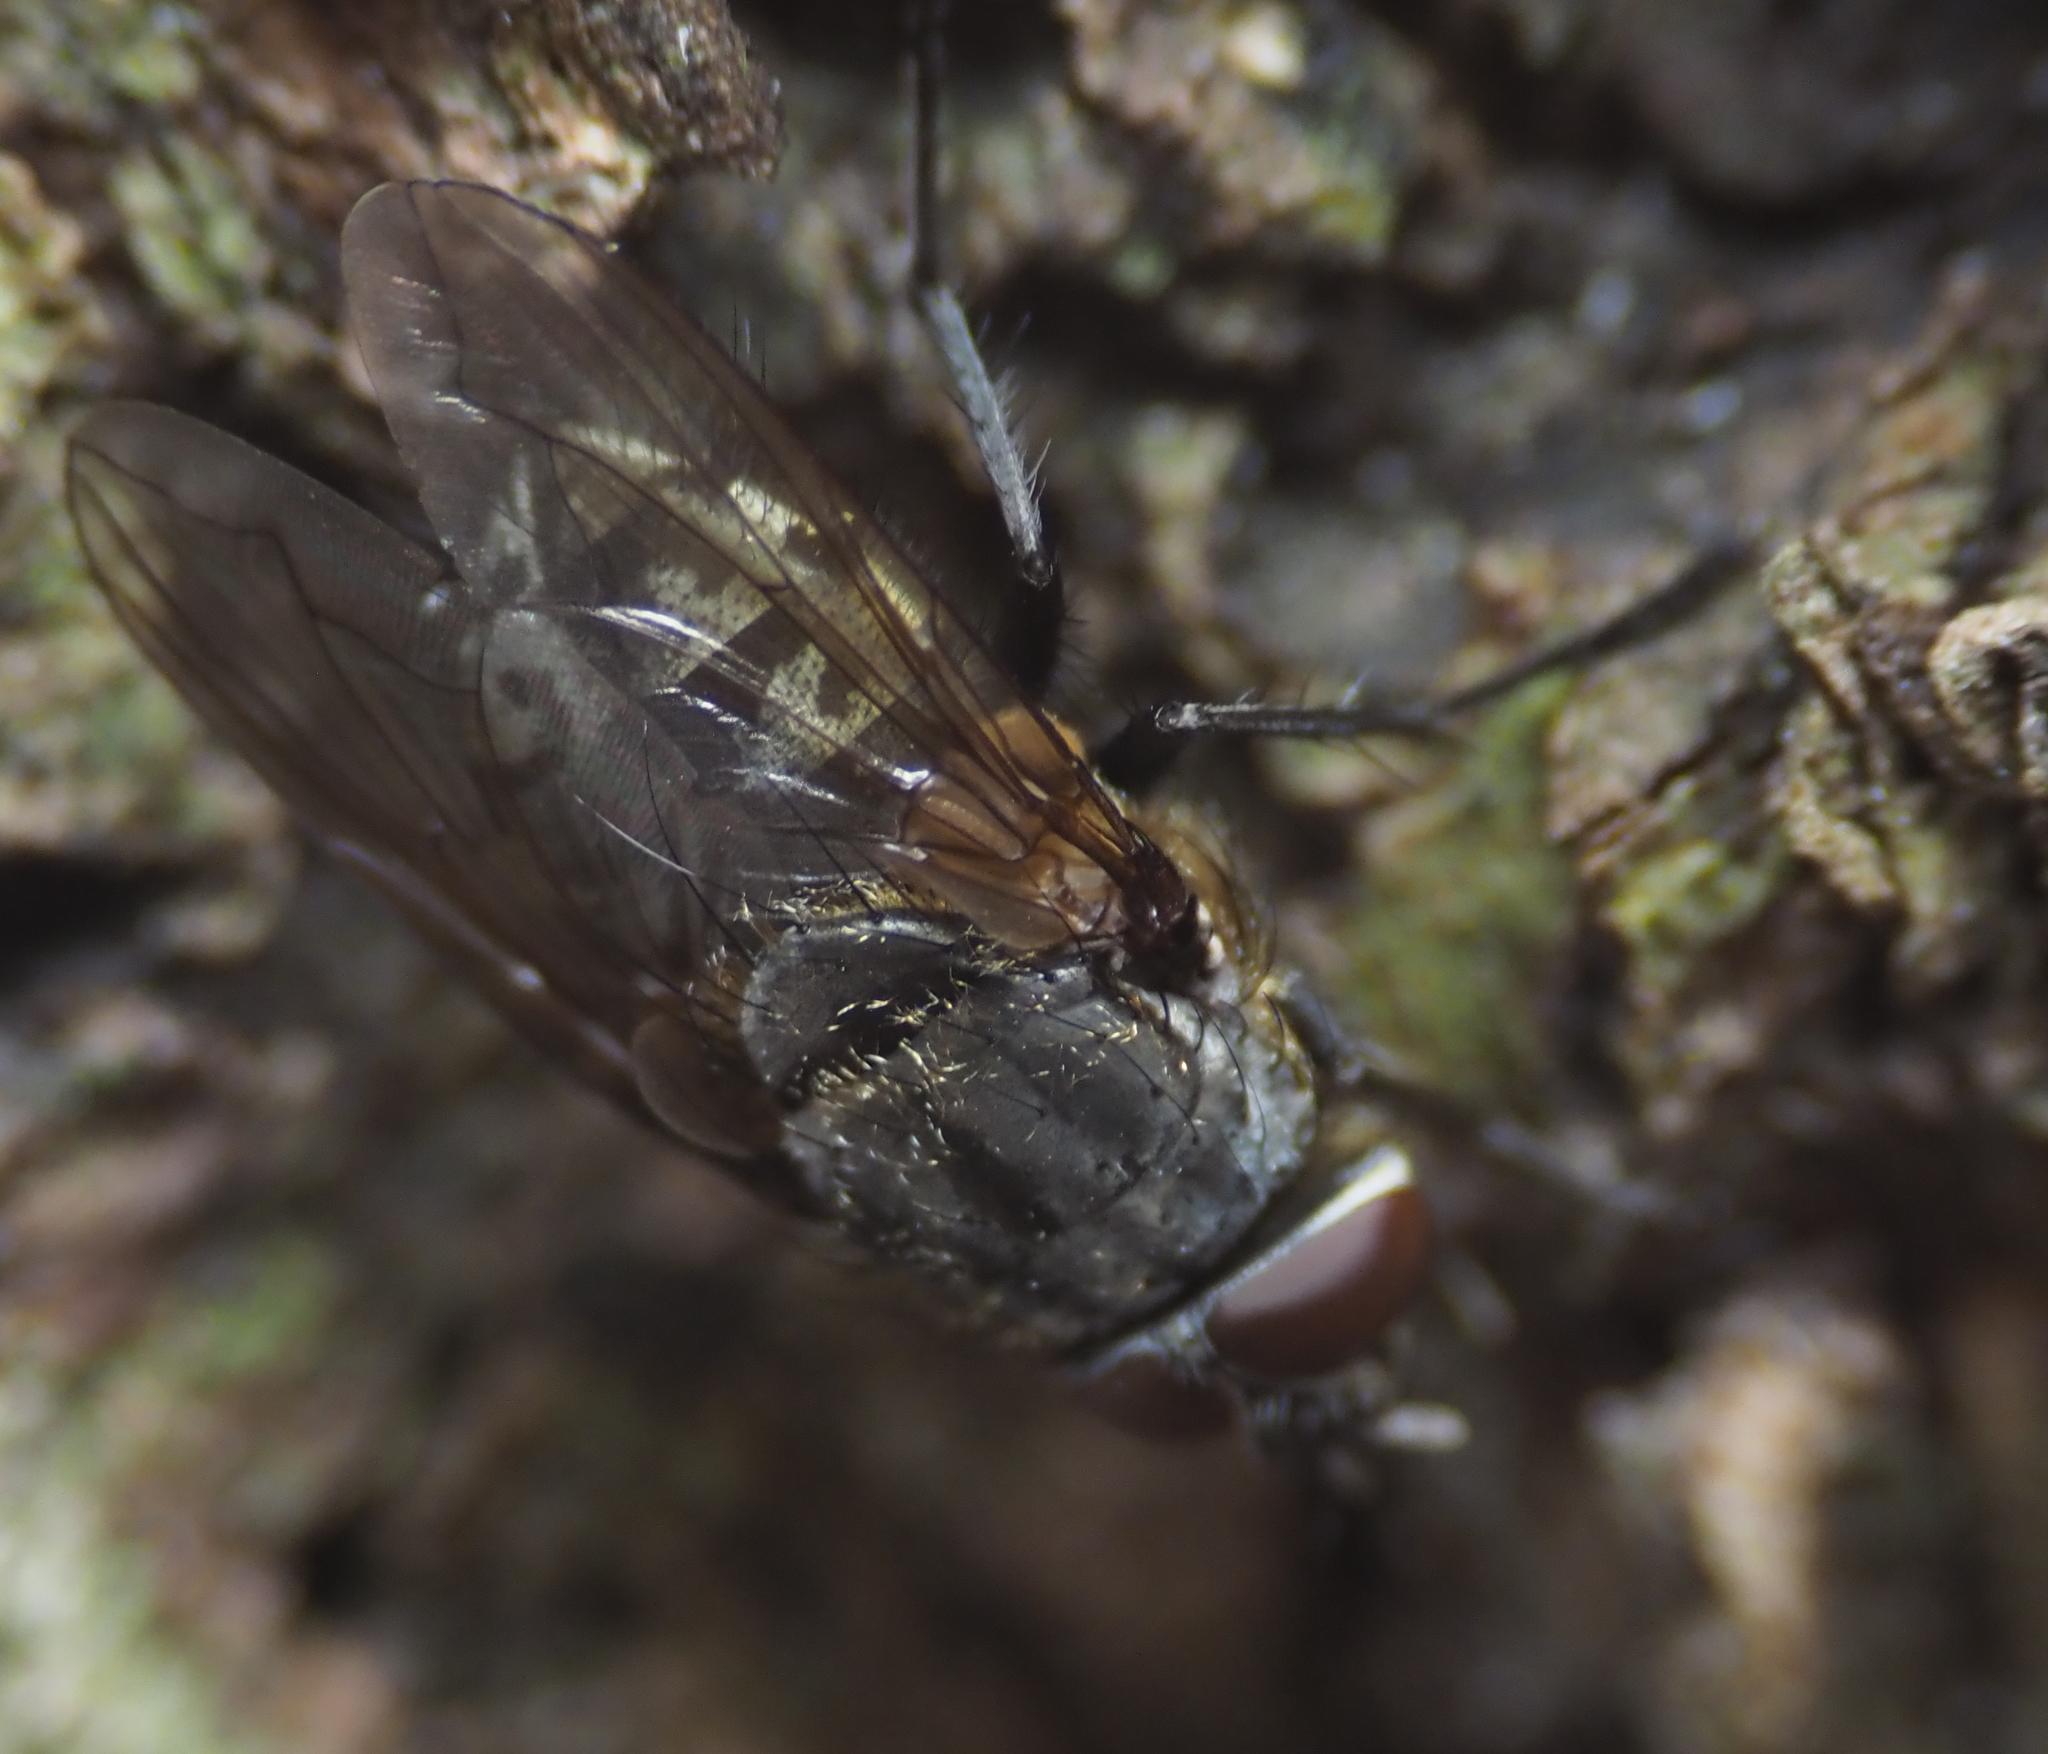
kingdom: Animalia
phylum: Arthropoda
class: Insecta
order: Diptera
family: Polleniidae
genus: Pollenia
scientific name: Pollenia
